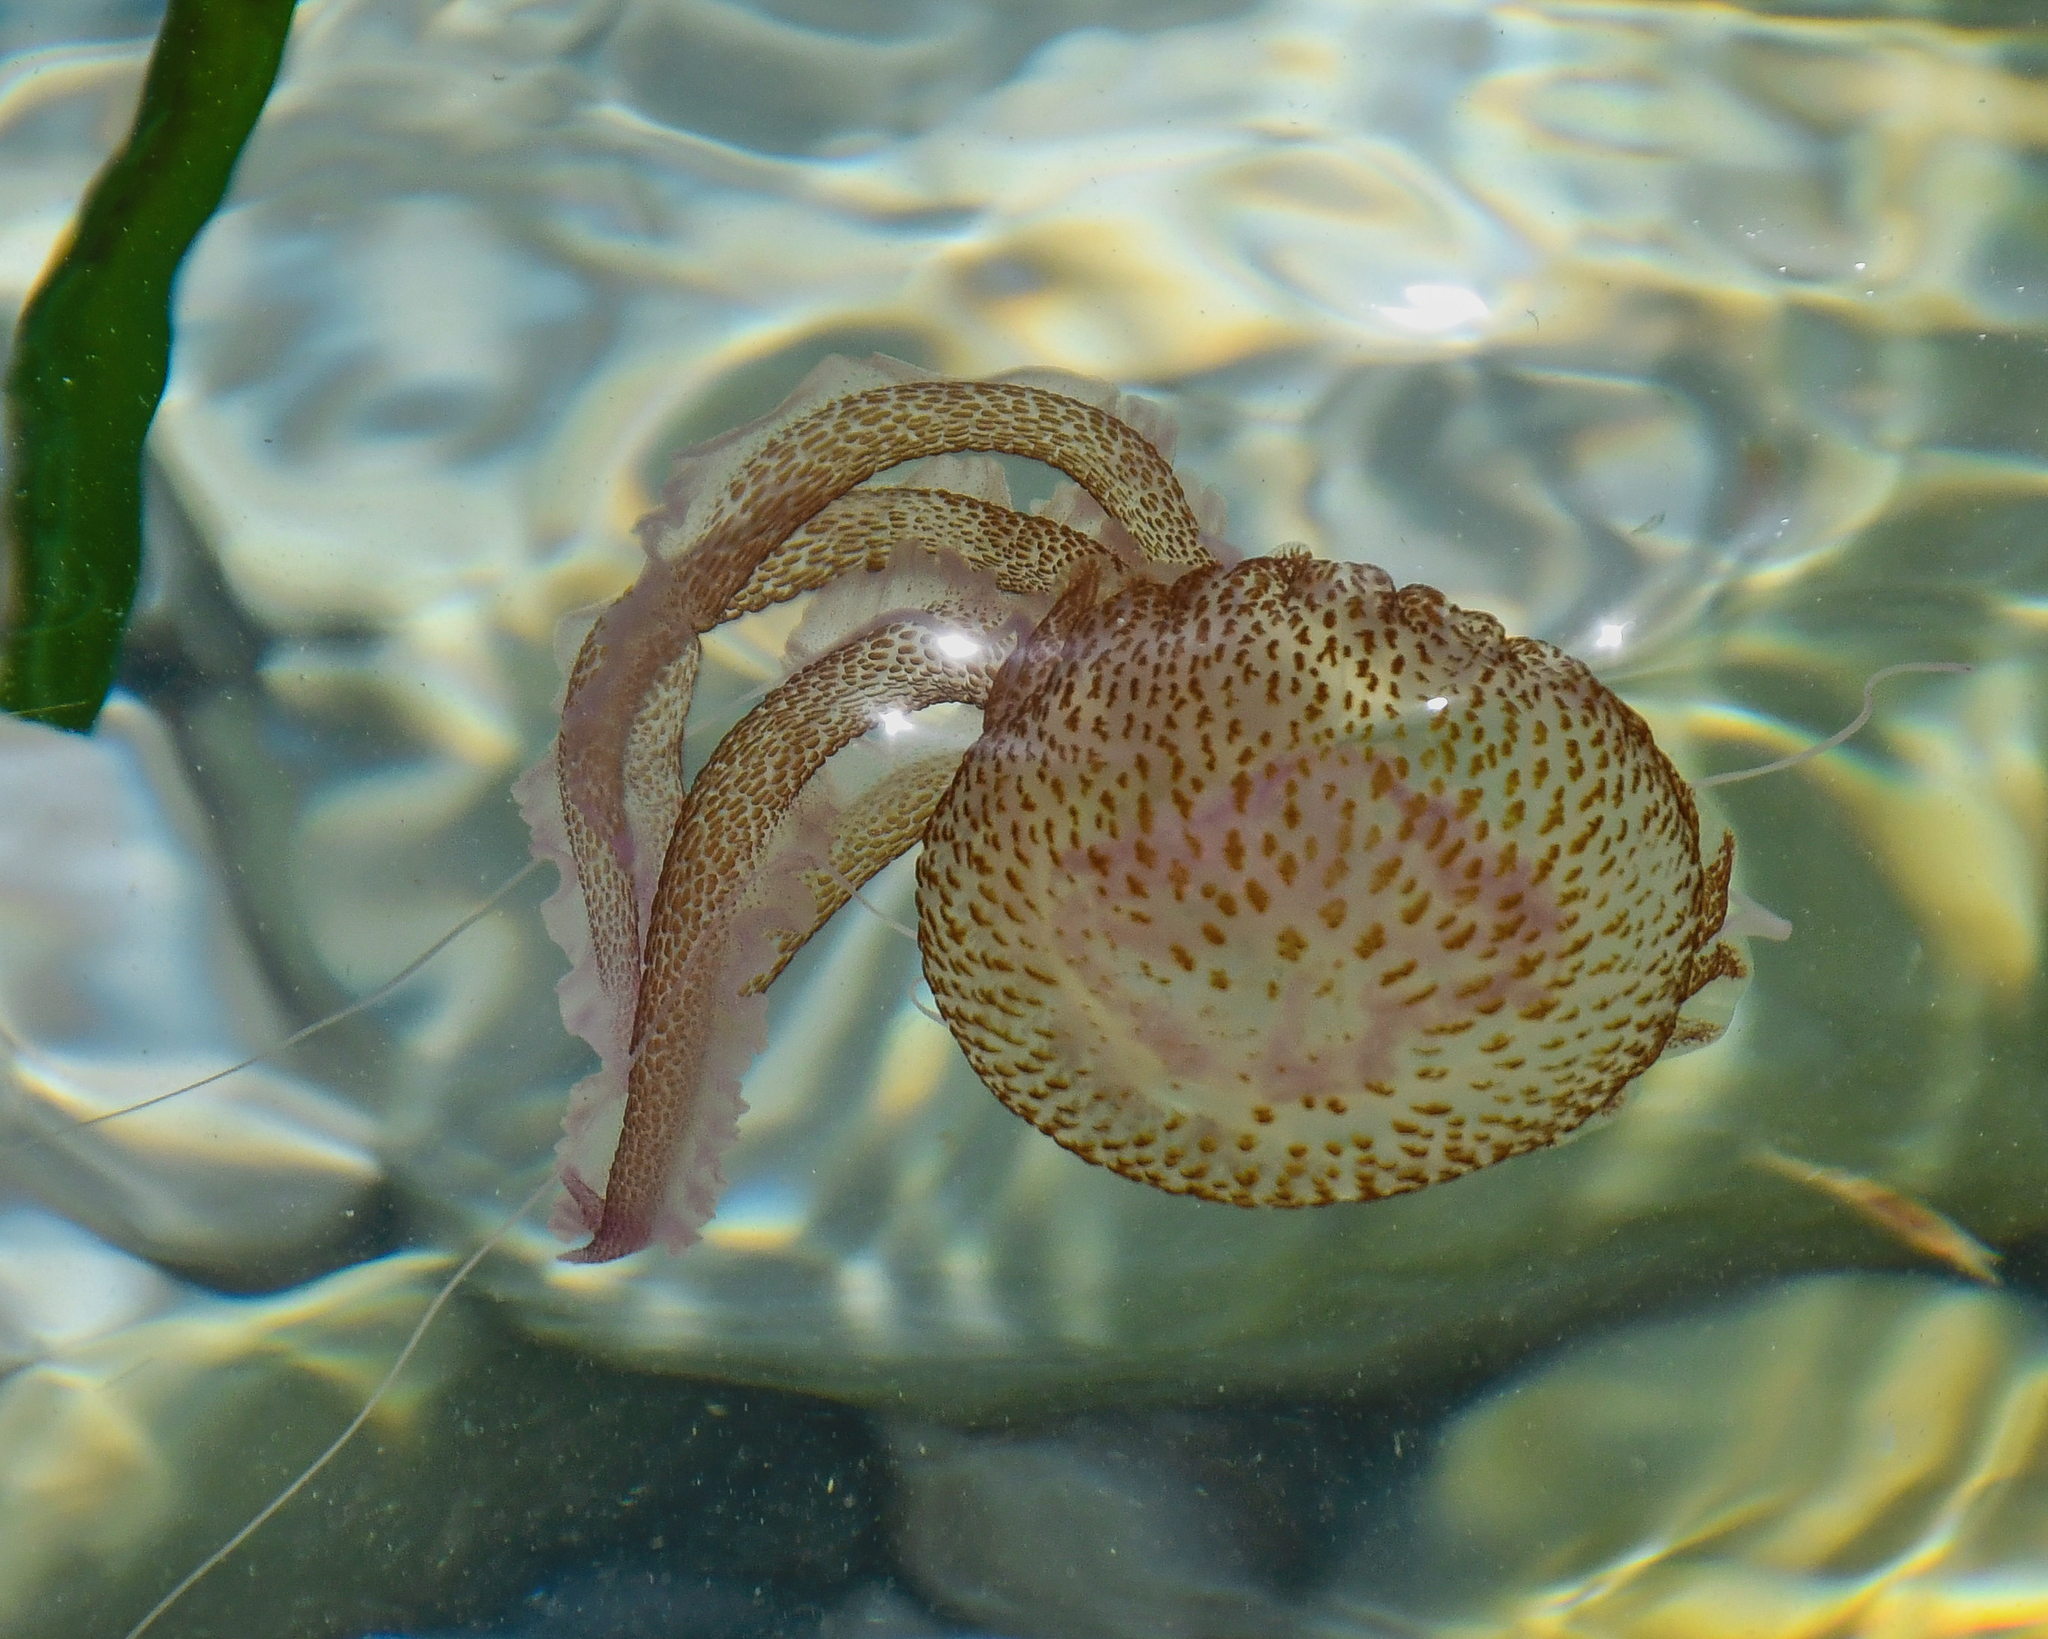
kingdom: Animalia
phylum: Cnidaria
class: Scyphozoa
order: Semaeostomeae
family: Pelagiidae
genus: Pelagia
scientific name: Pelagia noctiluca
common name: Mauve stinger
